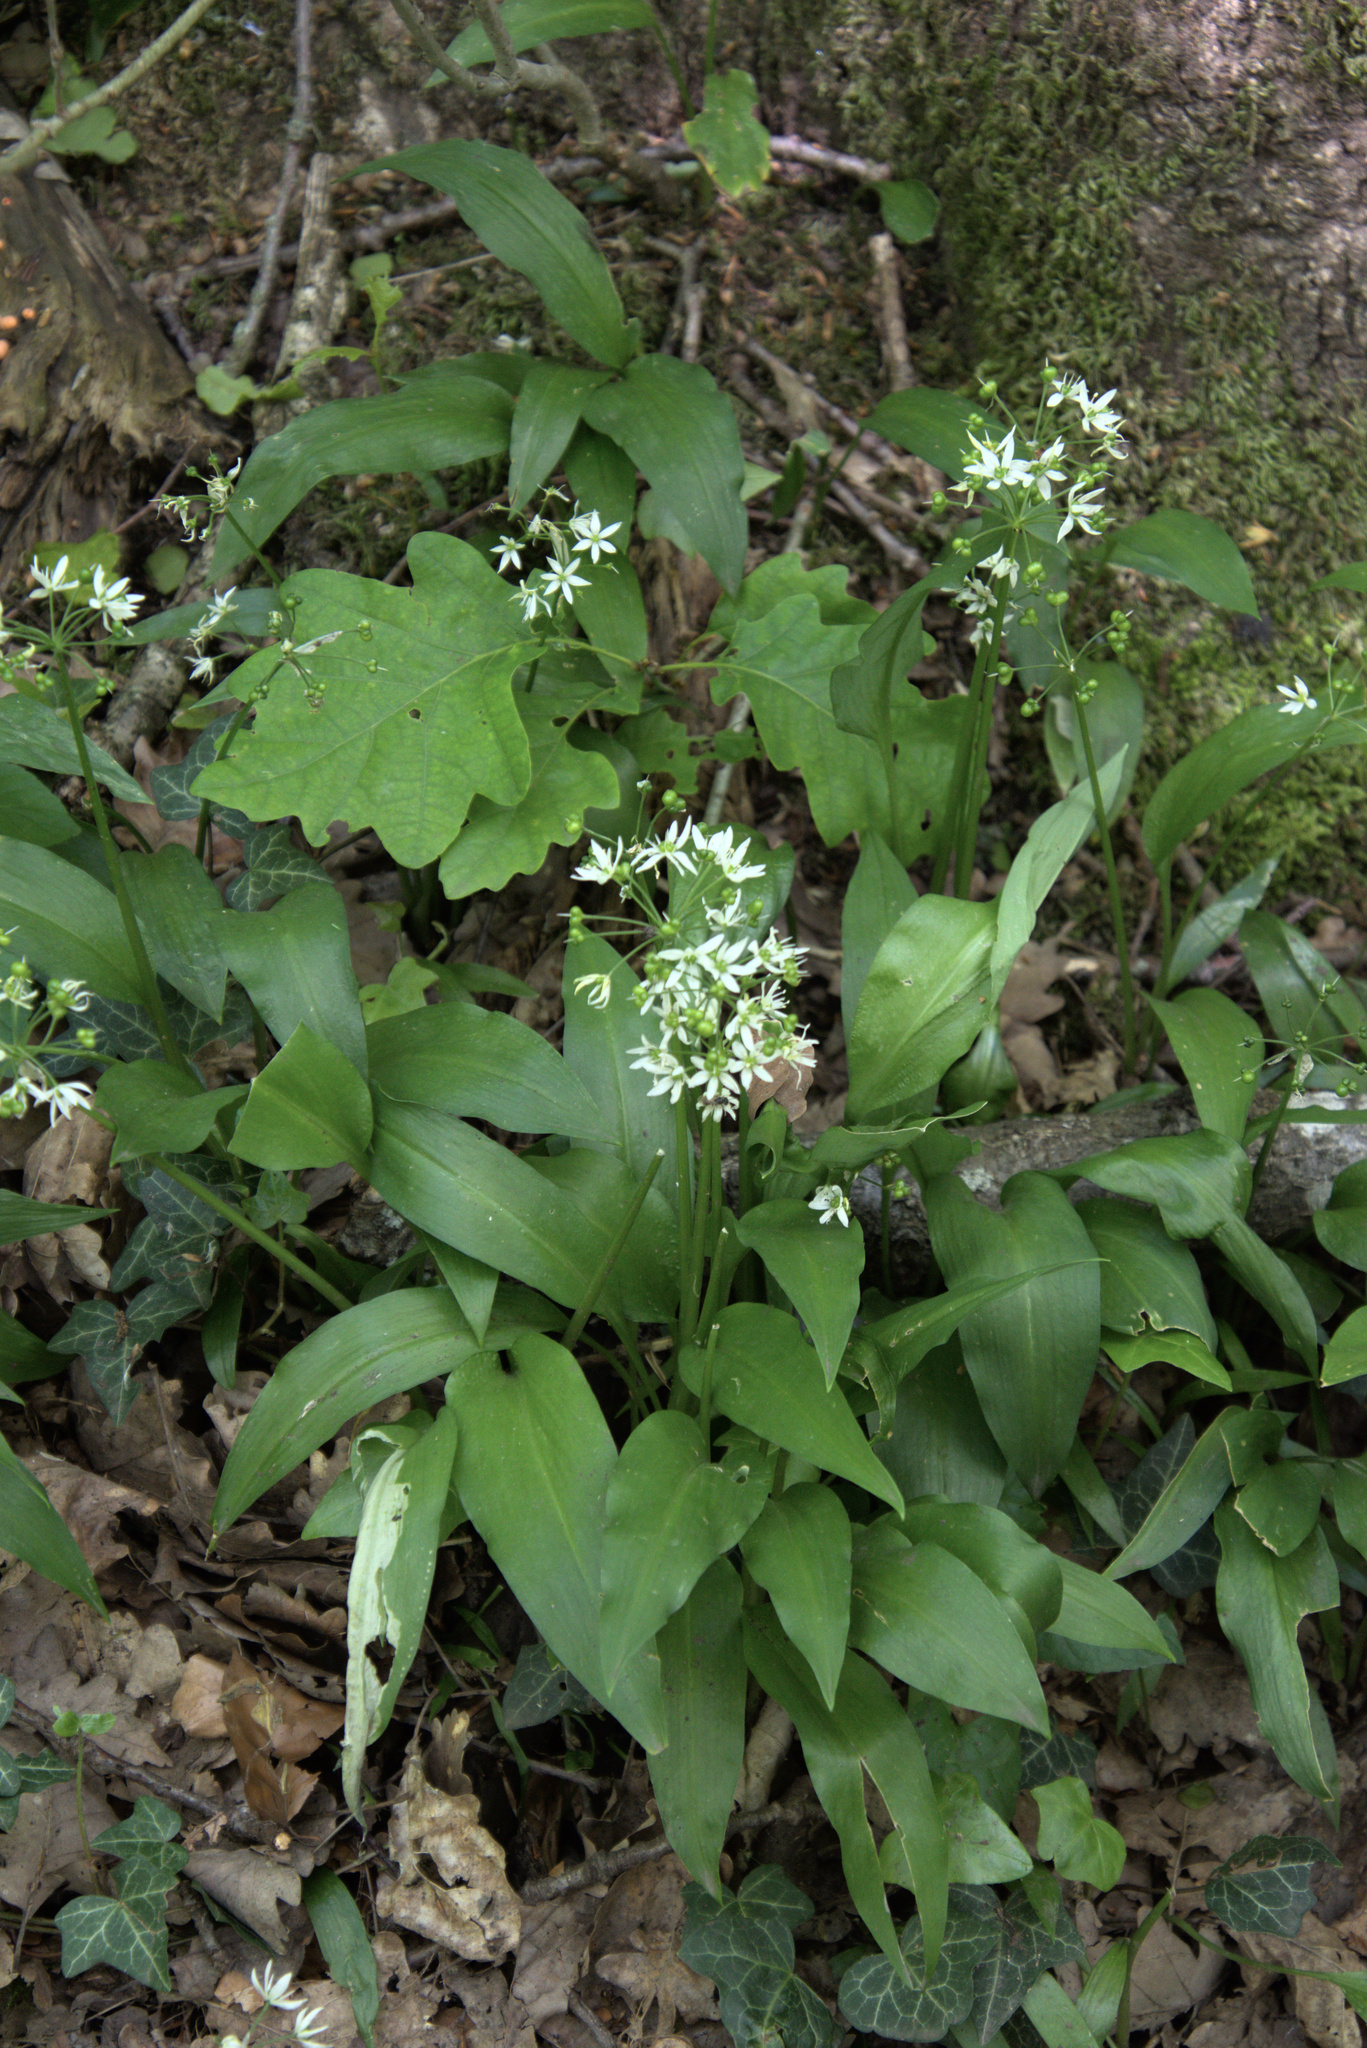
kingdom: Plantae
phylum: Tracheophyta
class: Liliopsida
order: Asparagales
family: Amaryllidaceae
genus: Allium
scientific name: Allium ursinum
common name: Ramsons
